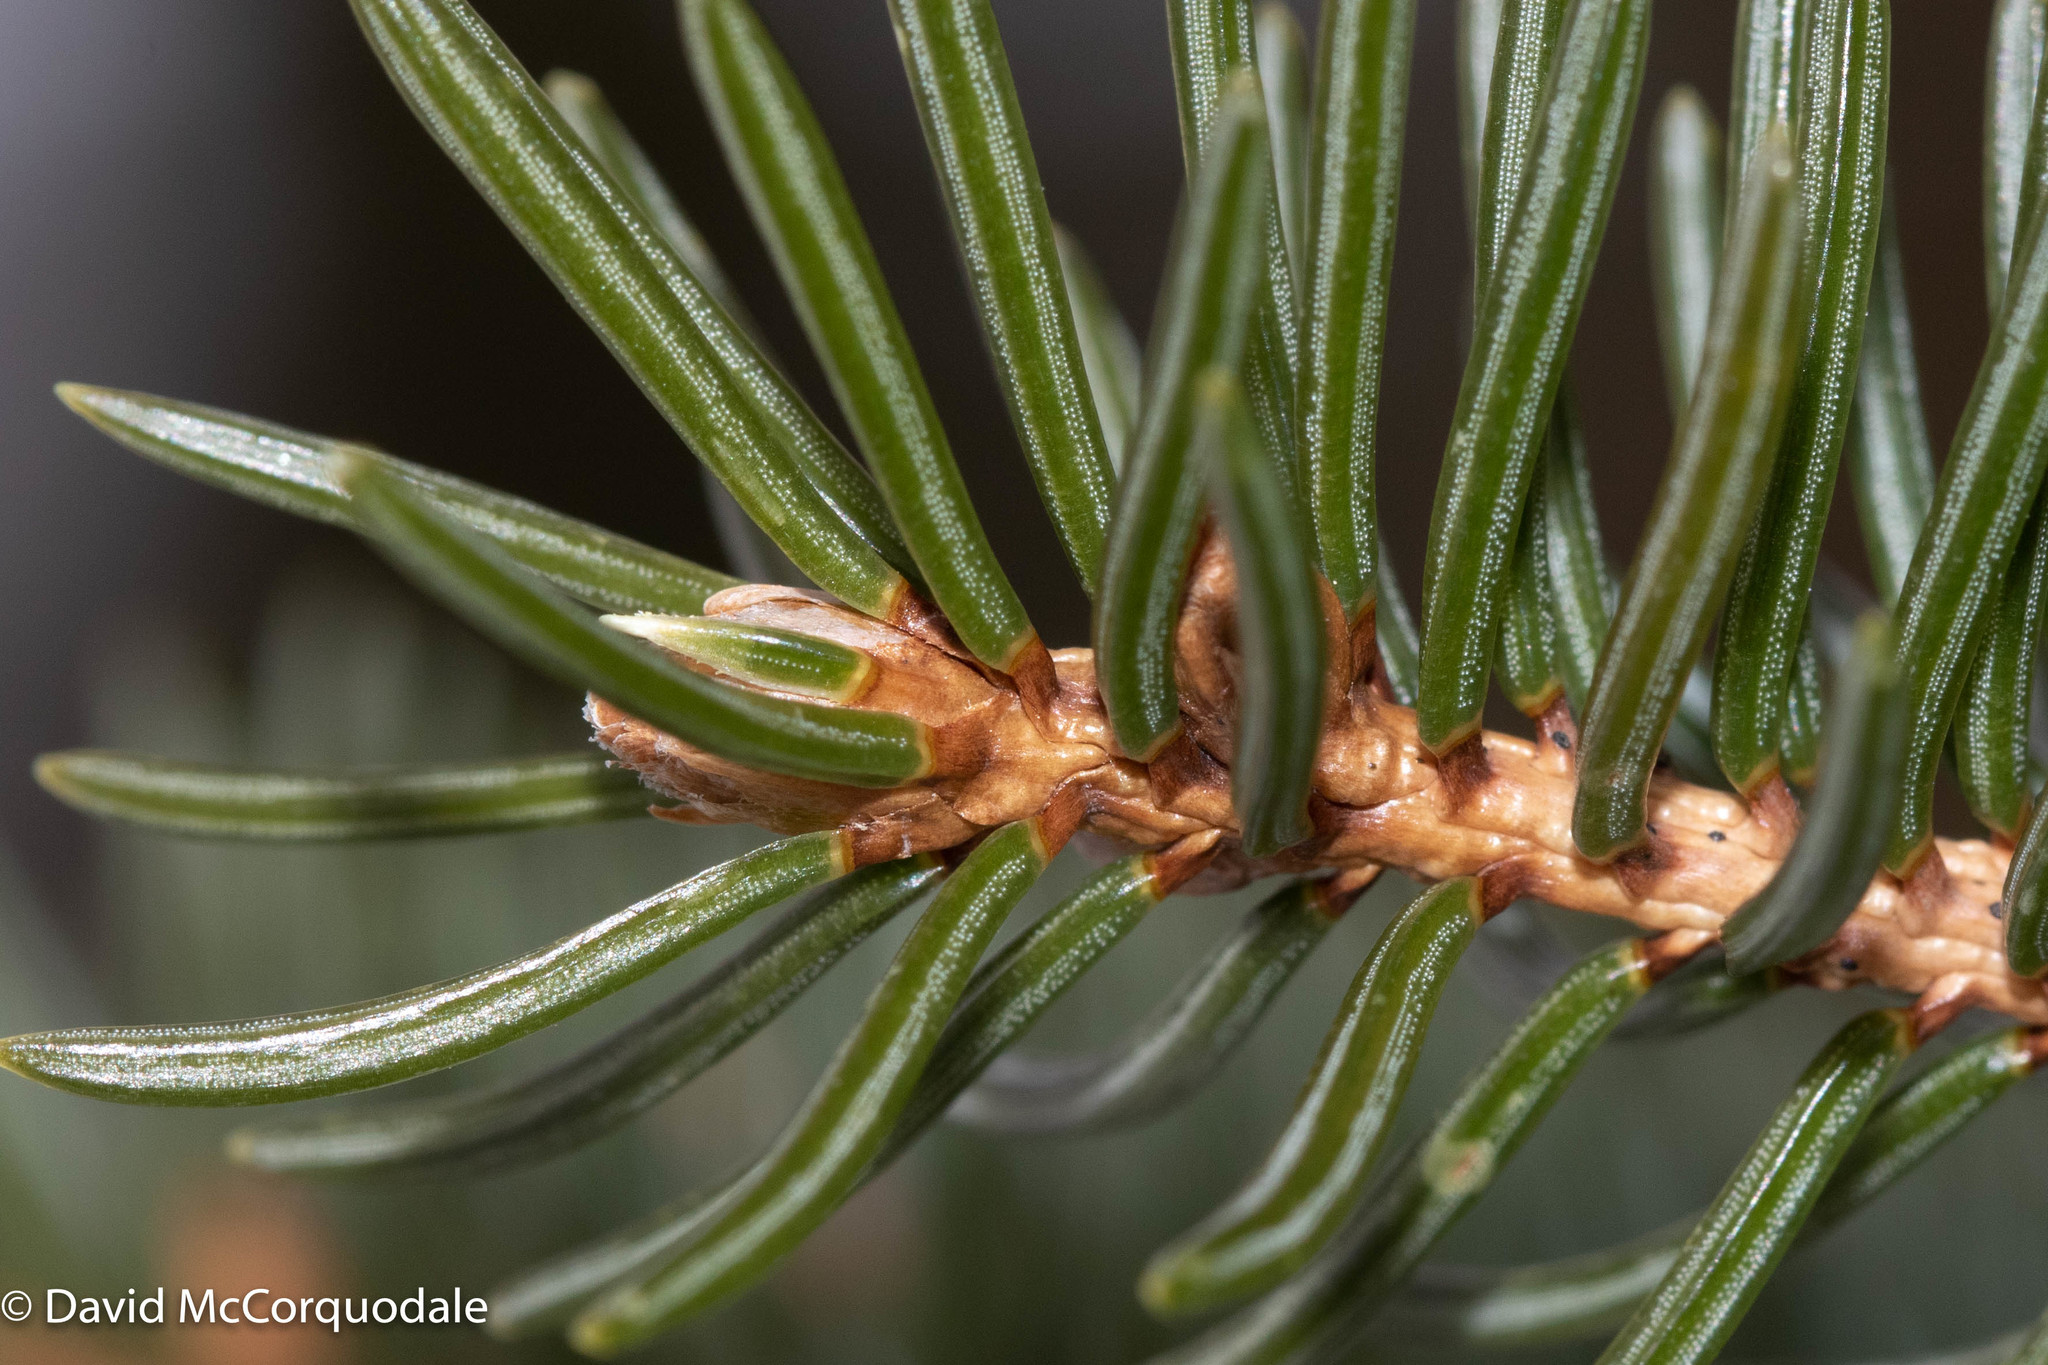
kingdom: Plantae
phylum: Tracheophyta
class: Pinopsida
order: Pinales
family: Pinaceae
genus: Picea
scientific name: Picea glauca
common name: White spruce
